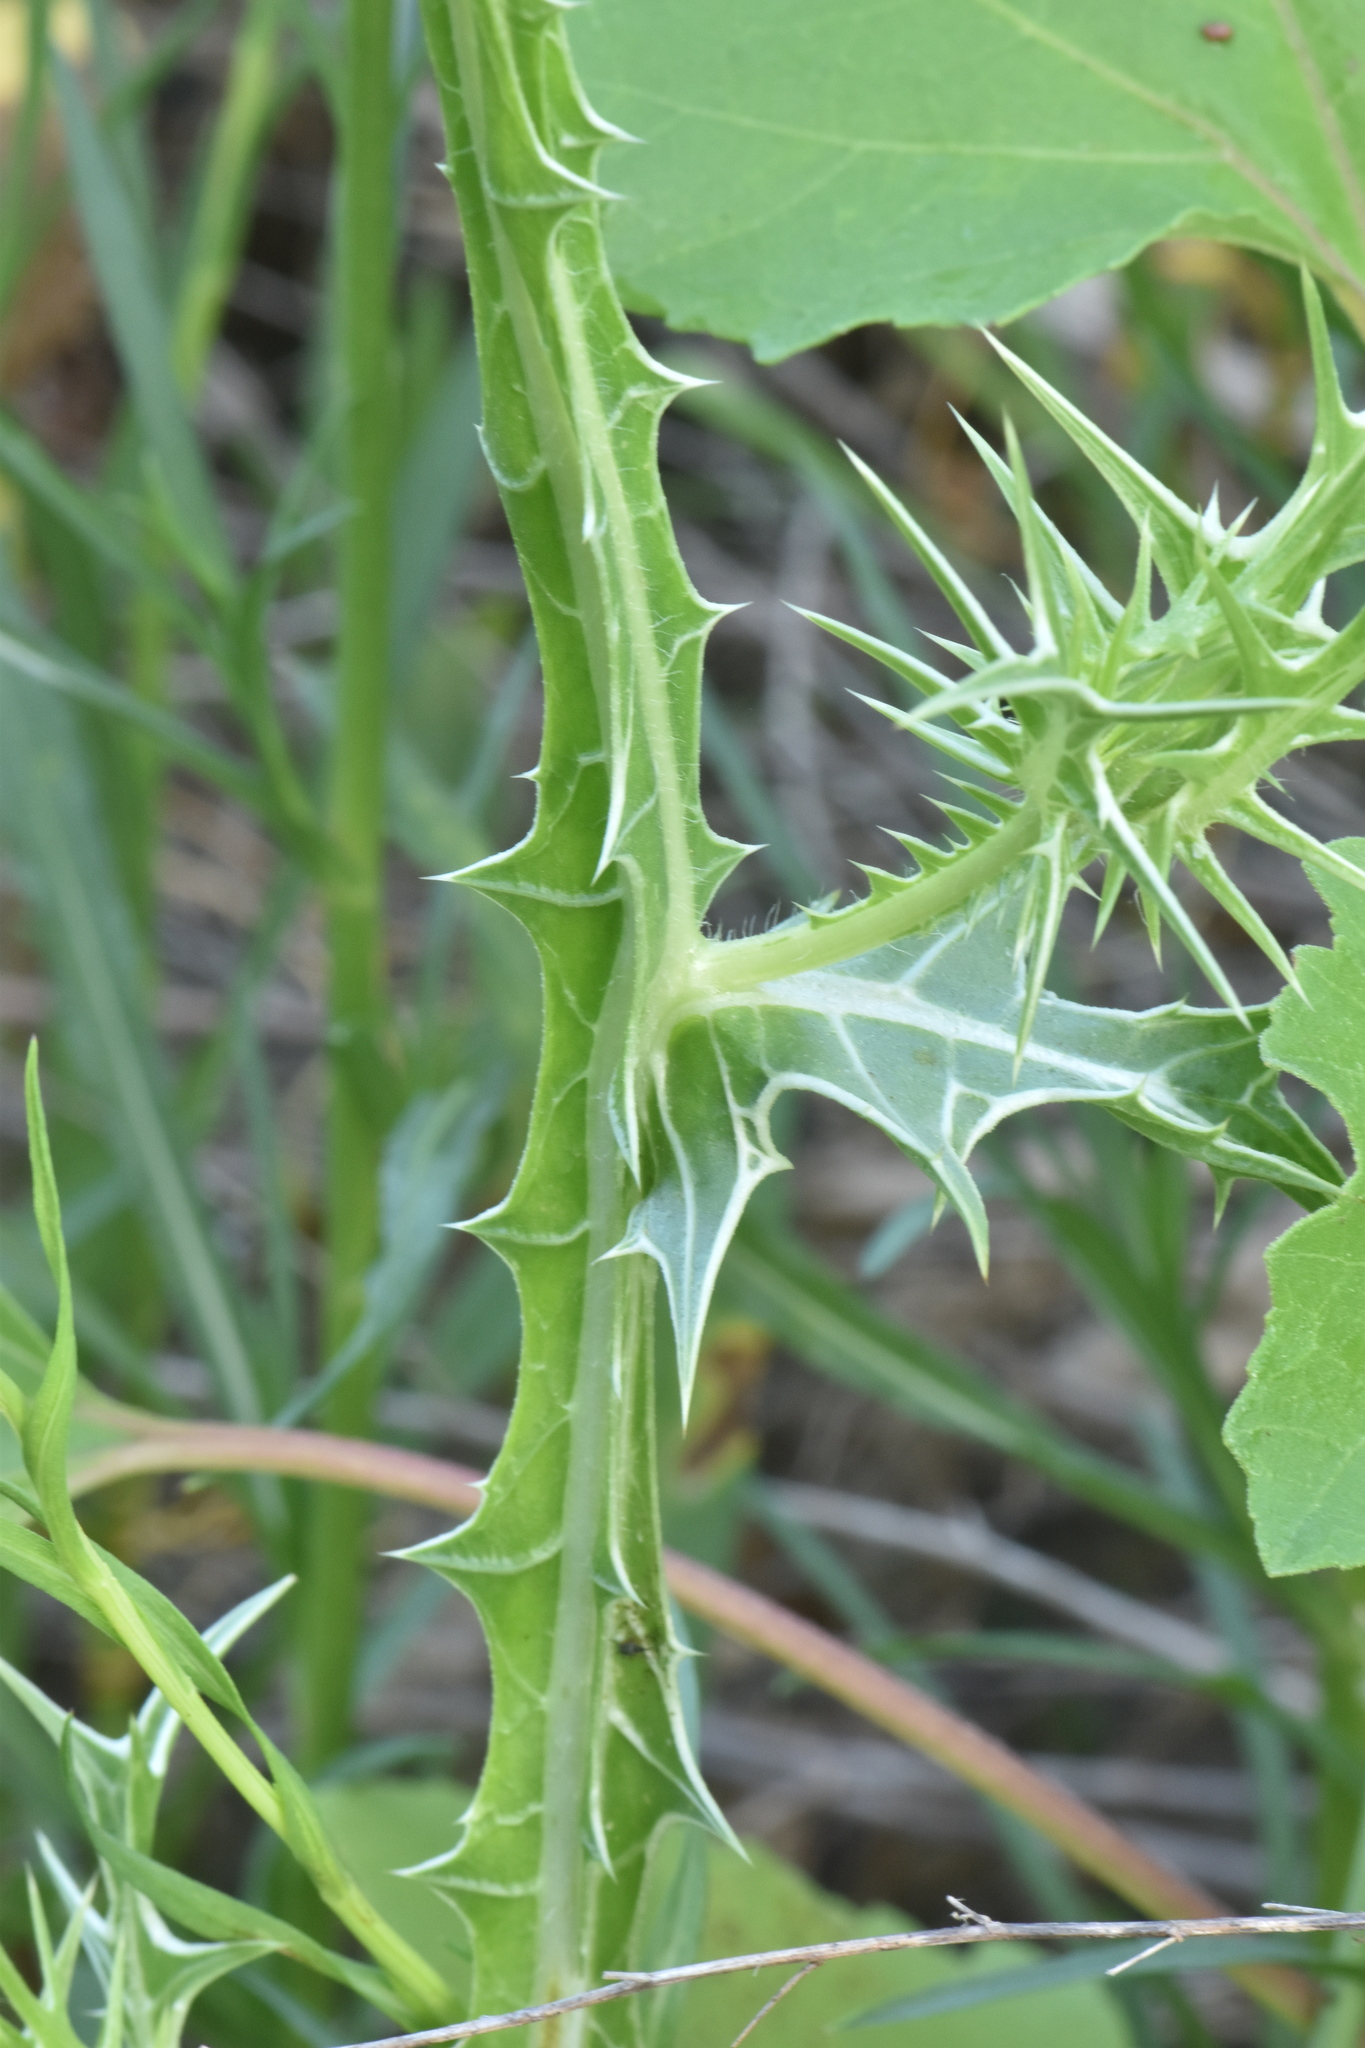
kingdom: Plantae
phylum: Tracheophyta
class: Magnoliopsida
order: Asterales
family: Asteraceae
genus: Scolymus
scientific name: Scolymus maculatus
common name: Spotted thistle
